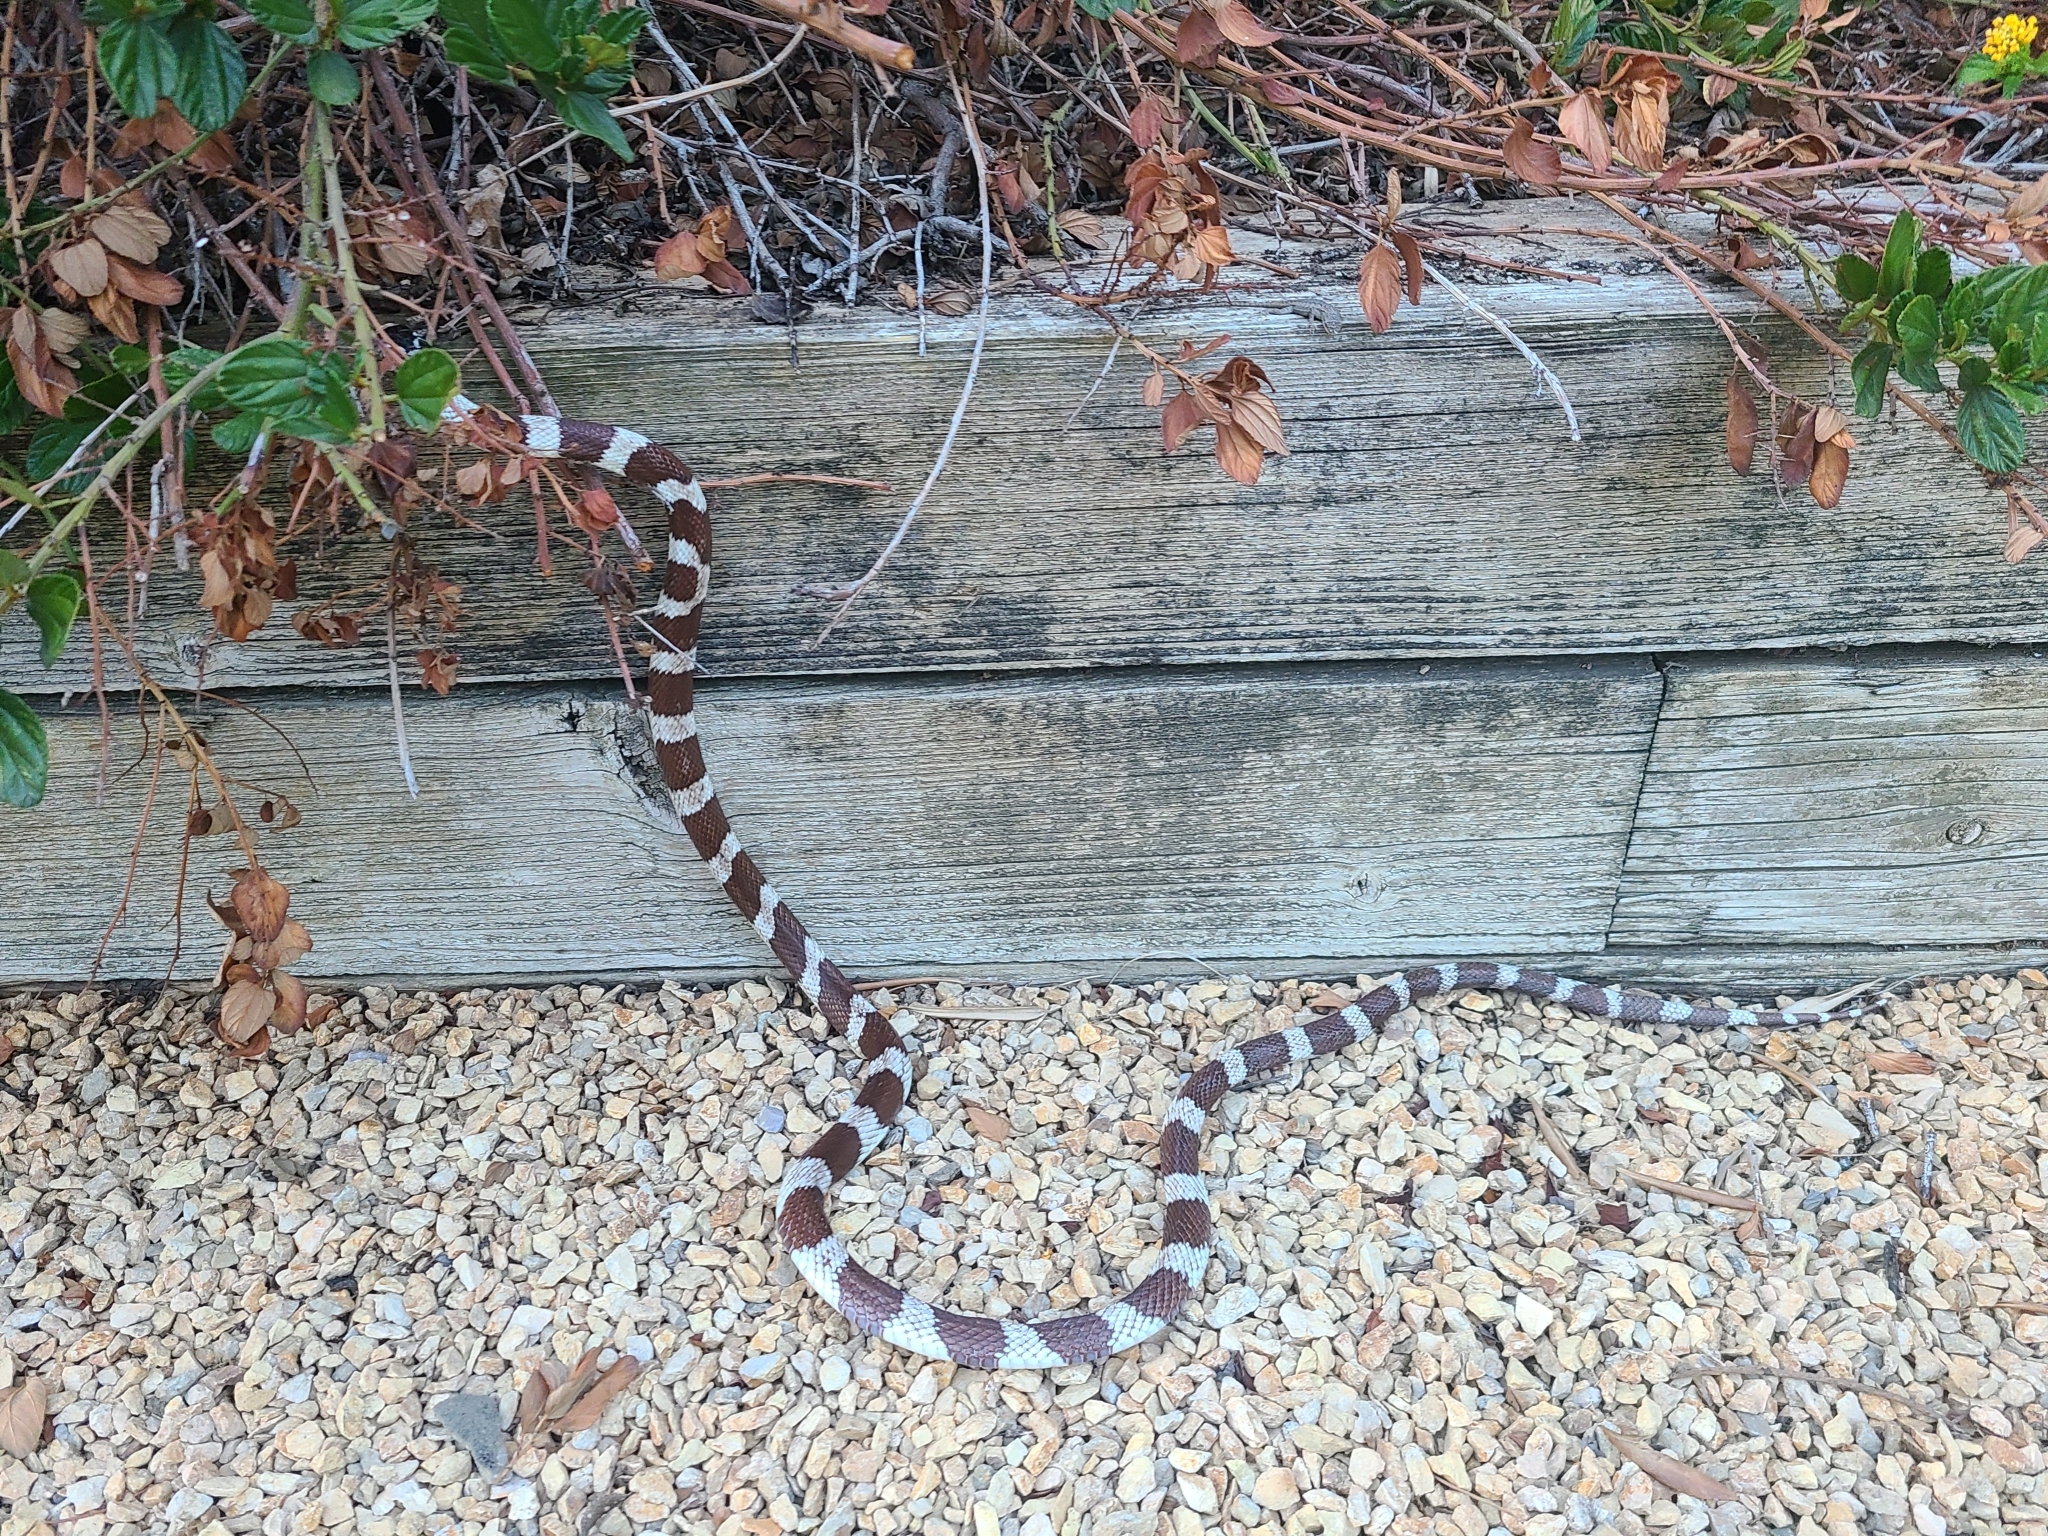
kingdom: Animalia
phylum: Chordata
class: Squamata
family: Colubridae
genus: Lampropeltis
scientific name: Lampropeltis californiae
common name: California kingsnake
